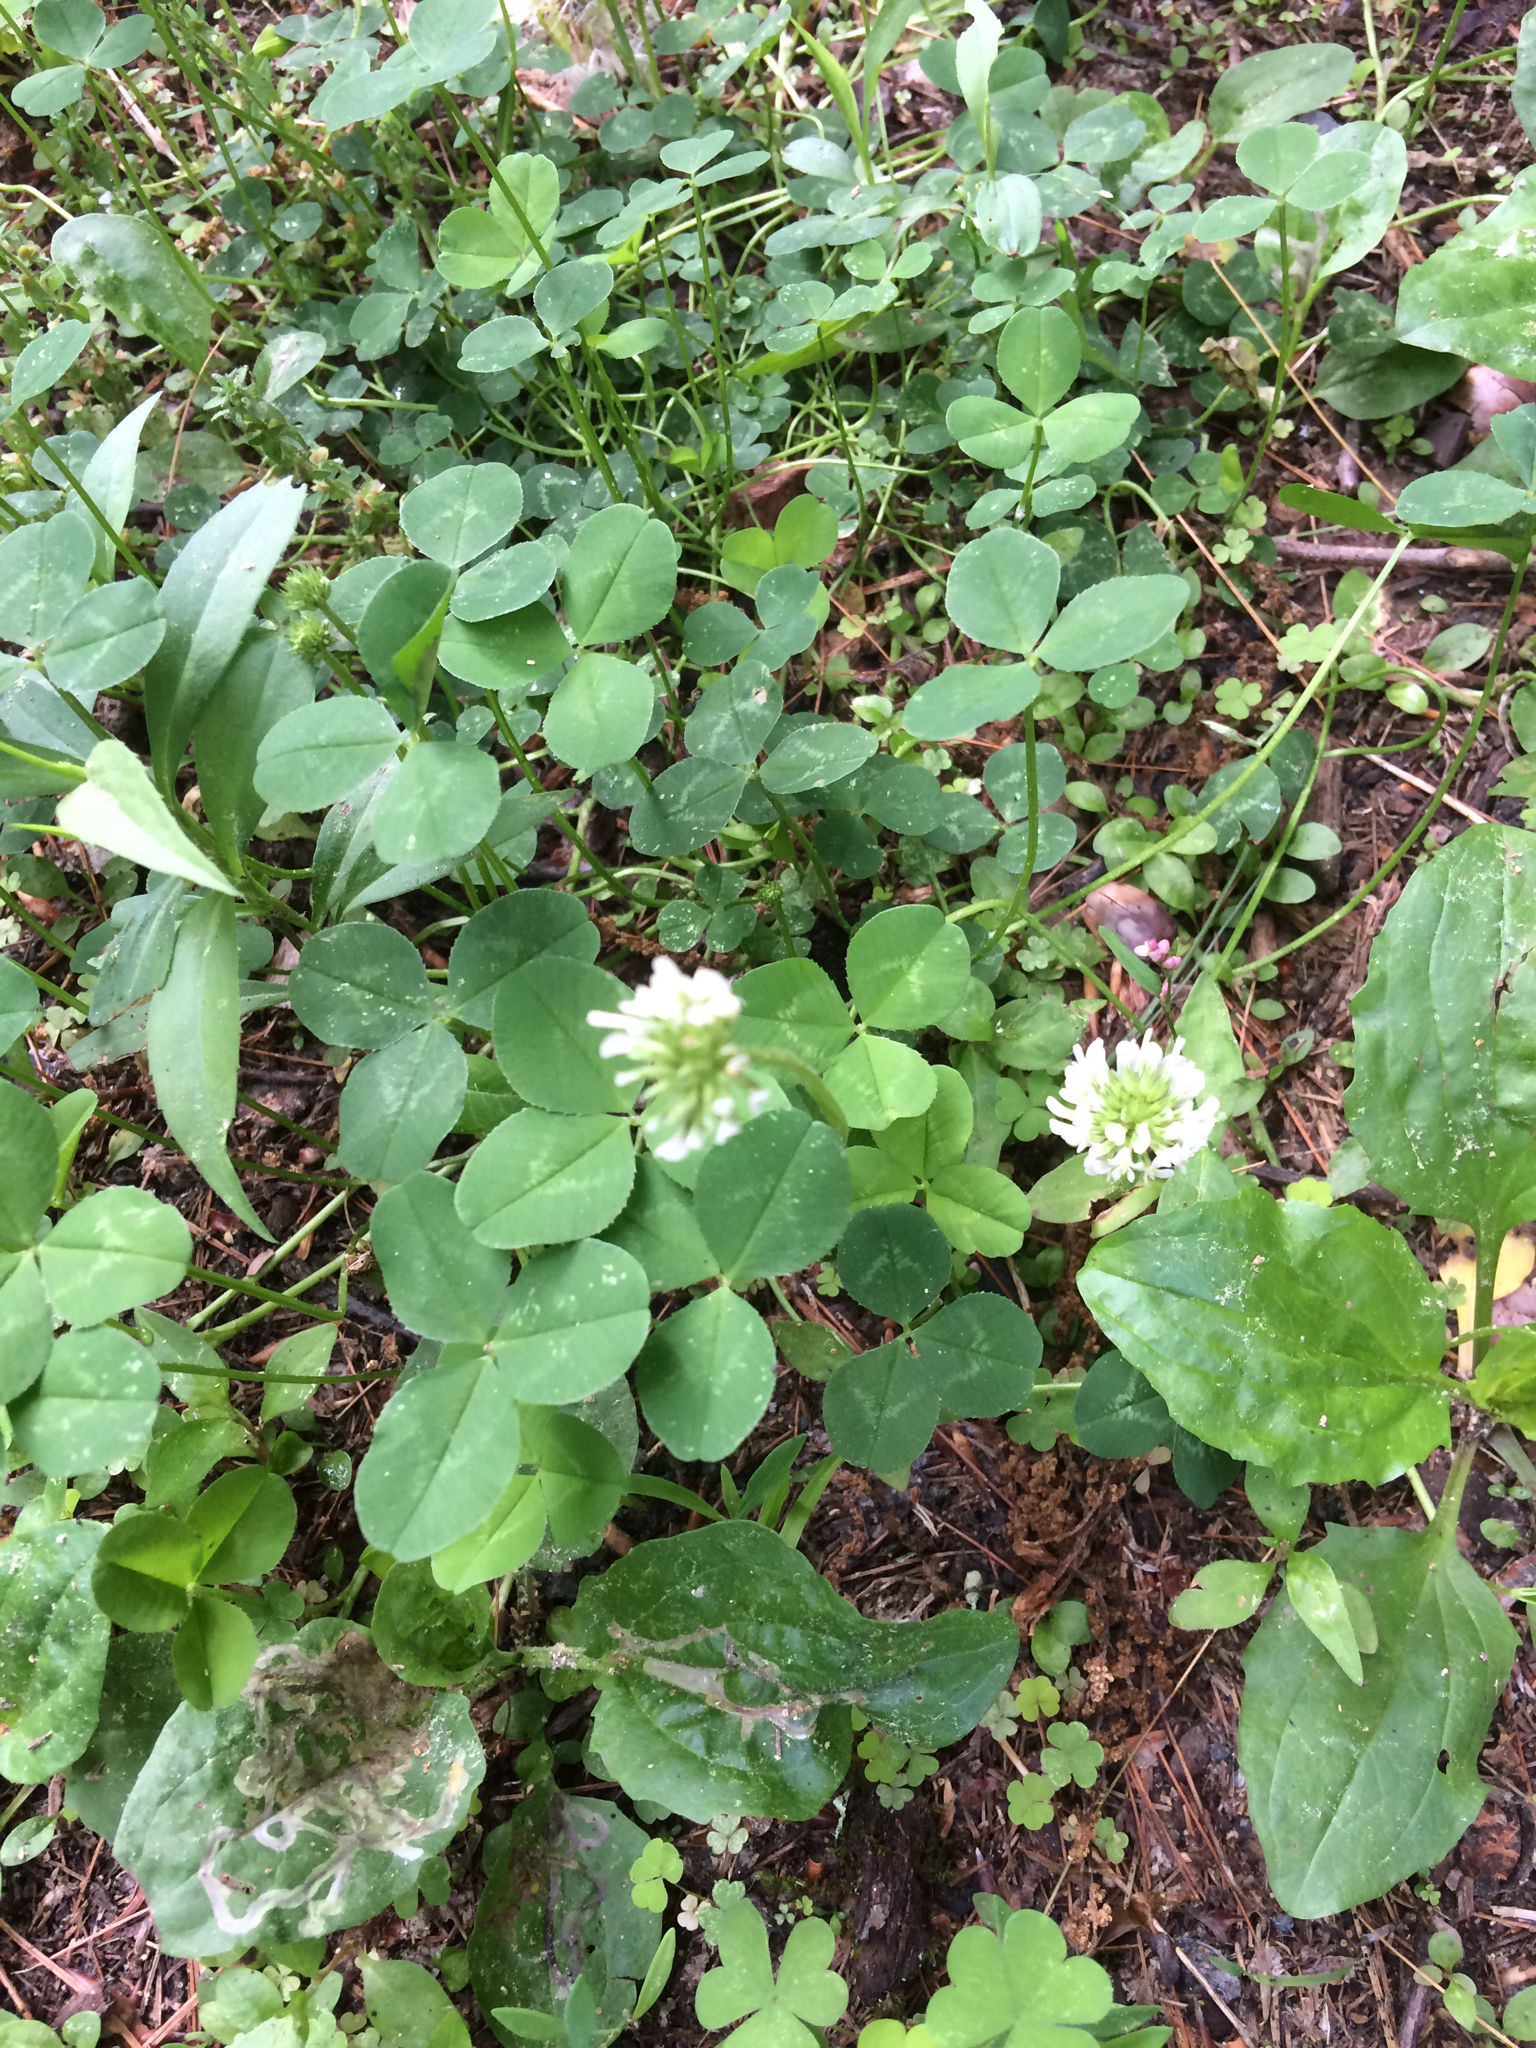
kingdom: Plantae
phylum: Tracheophyta
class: Magnoliopsida
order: Fabales
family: Fabaceae
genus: Trifolium
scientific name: Trifolium repens
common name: White clover
